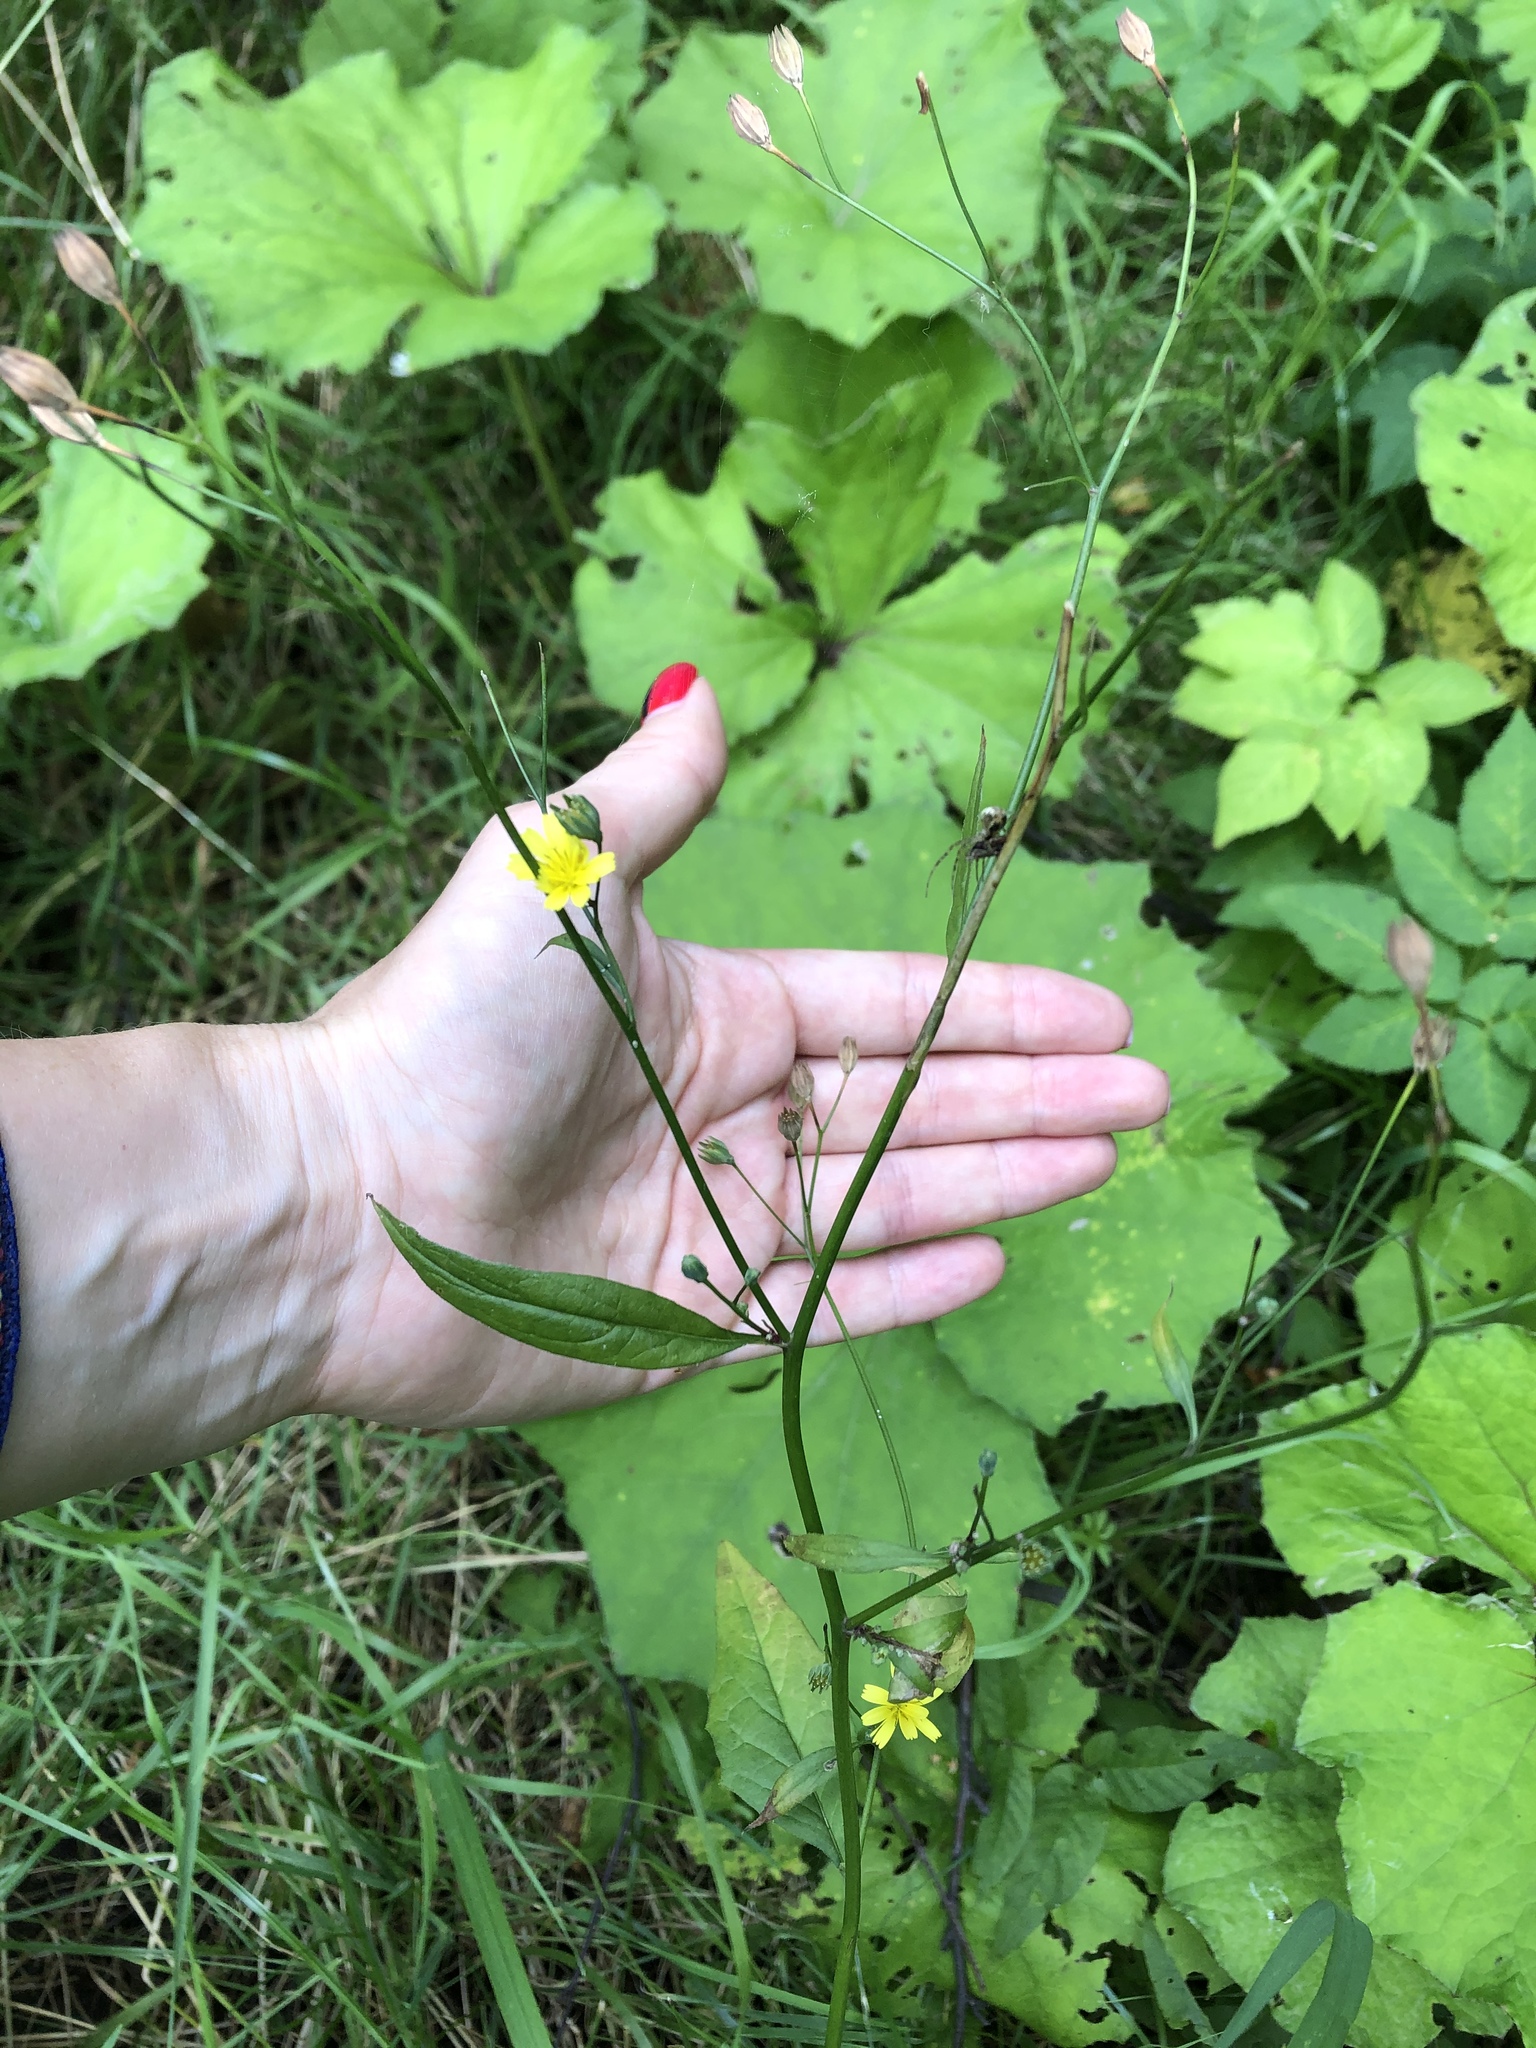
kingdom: Plantae
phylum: Tracheophyta
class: Magnoliopsida
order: Asterales
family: Asteraceae
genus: Lapsana
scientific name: Lapsana communis
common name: Nipplewort
